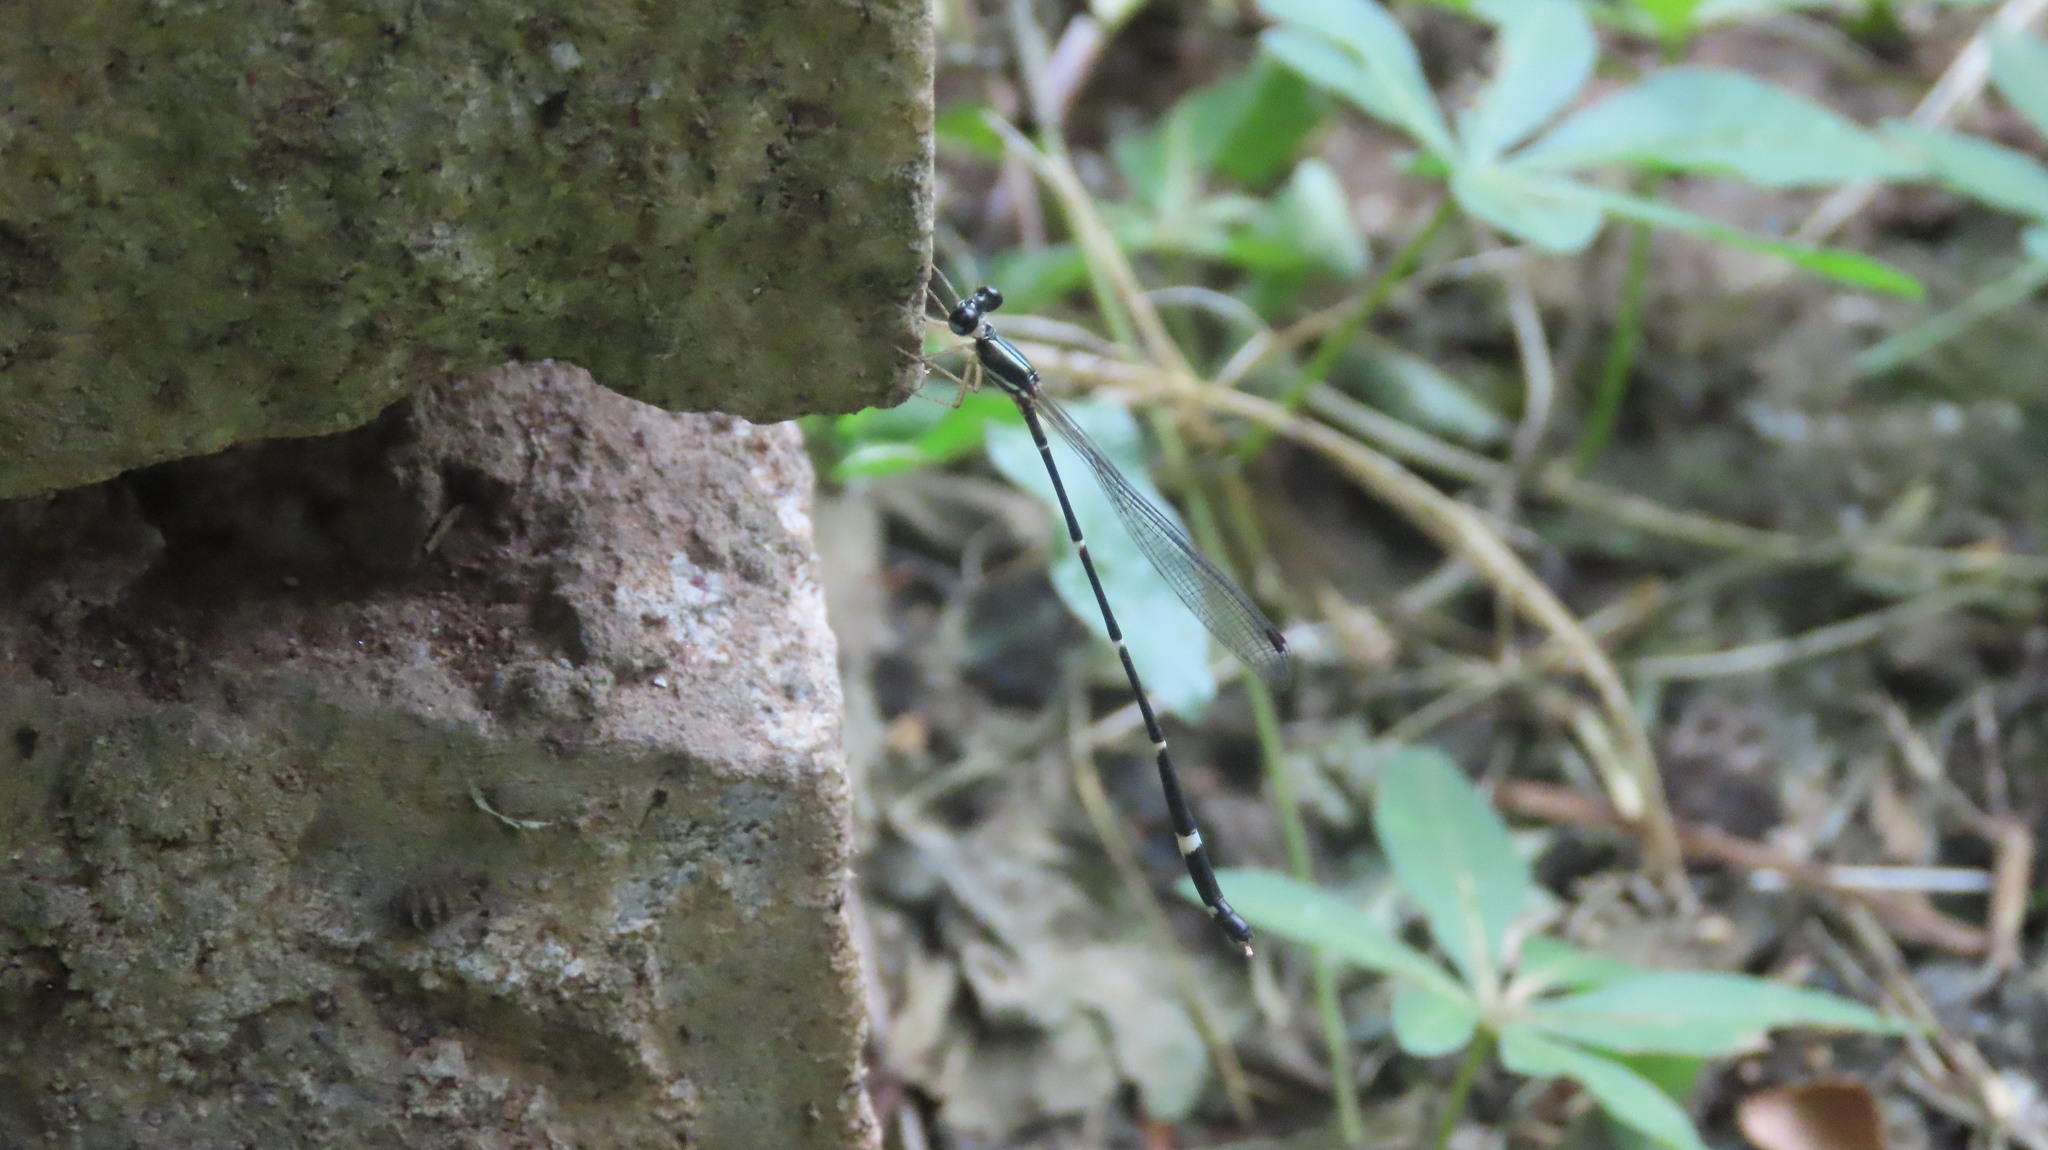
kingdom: Animalia
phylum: Arthropoda
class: Insecta
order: Odonata
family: Platystictidae
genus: Protosticta
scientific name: Protosticta gravelyi
